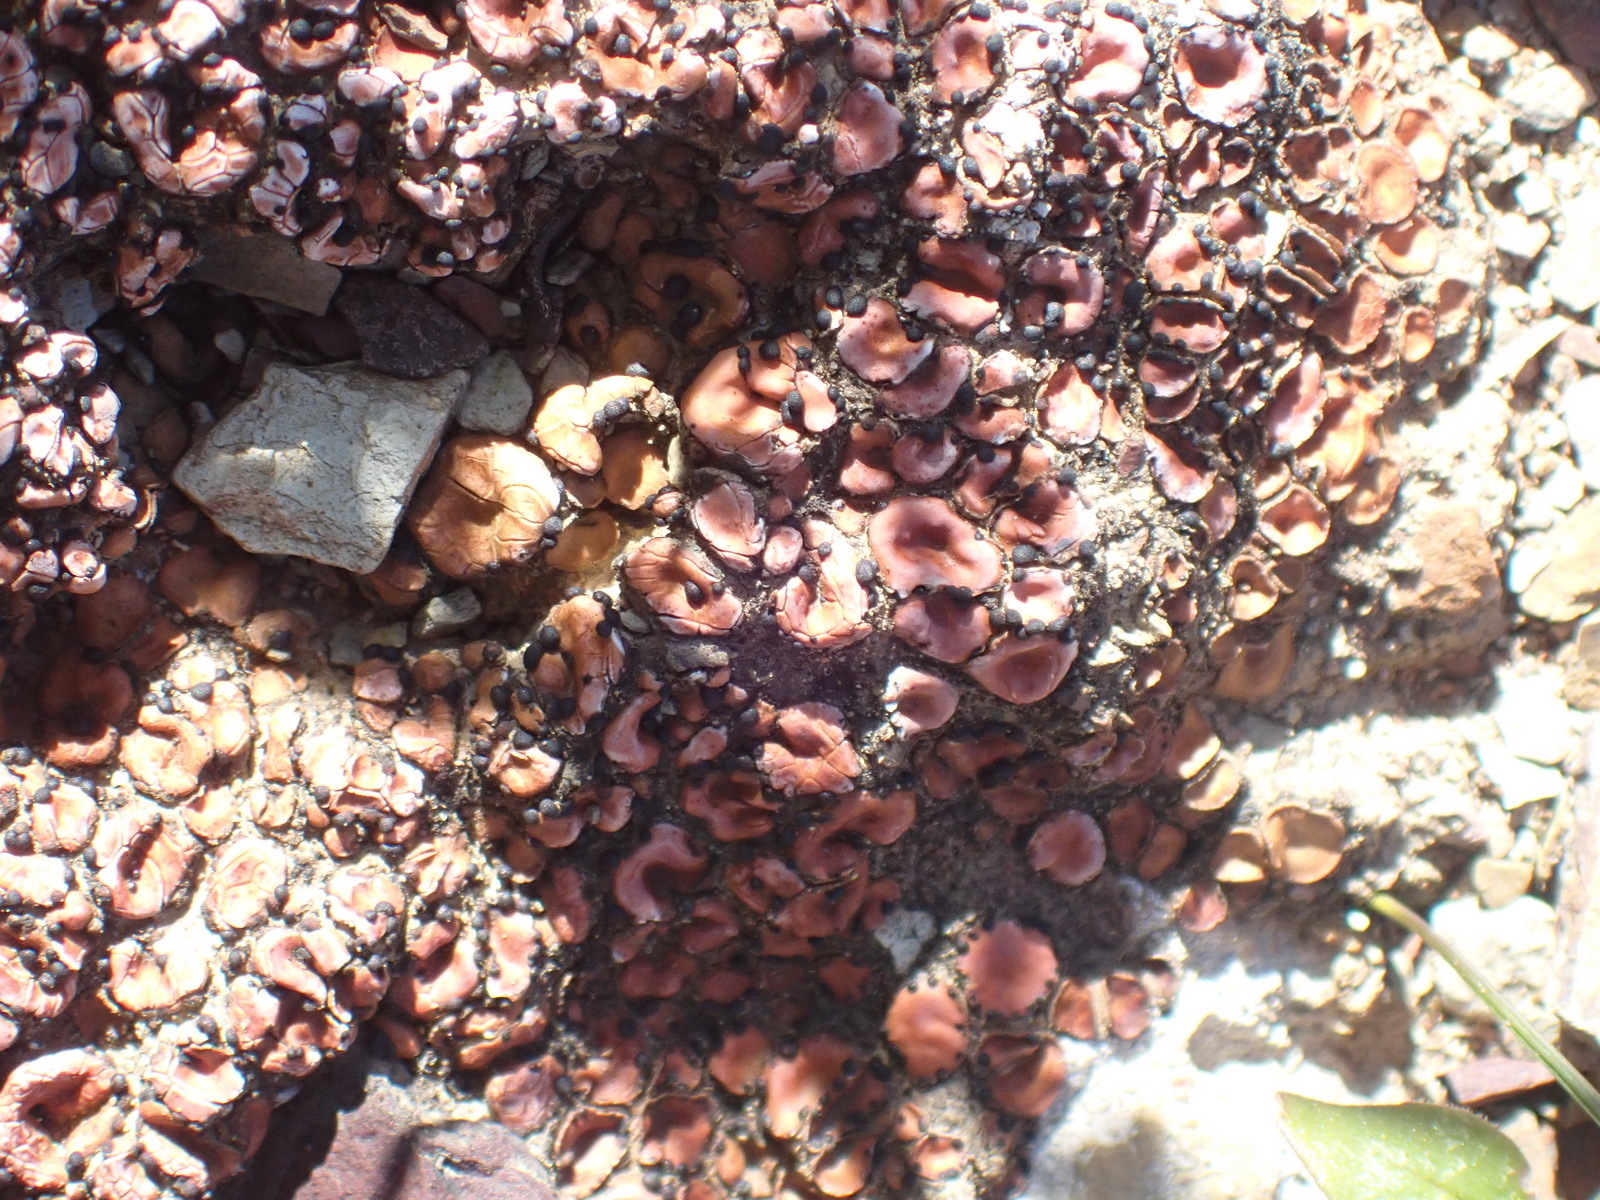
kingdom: Fungi
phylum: Ascomycota
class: Lecanoromycetes
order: Lecanorales
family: Psoraceae
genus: Psora
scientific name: Psora crenata
